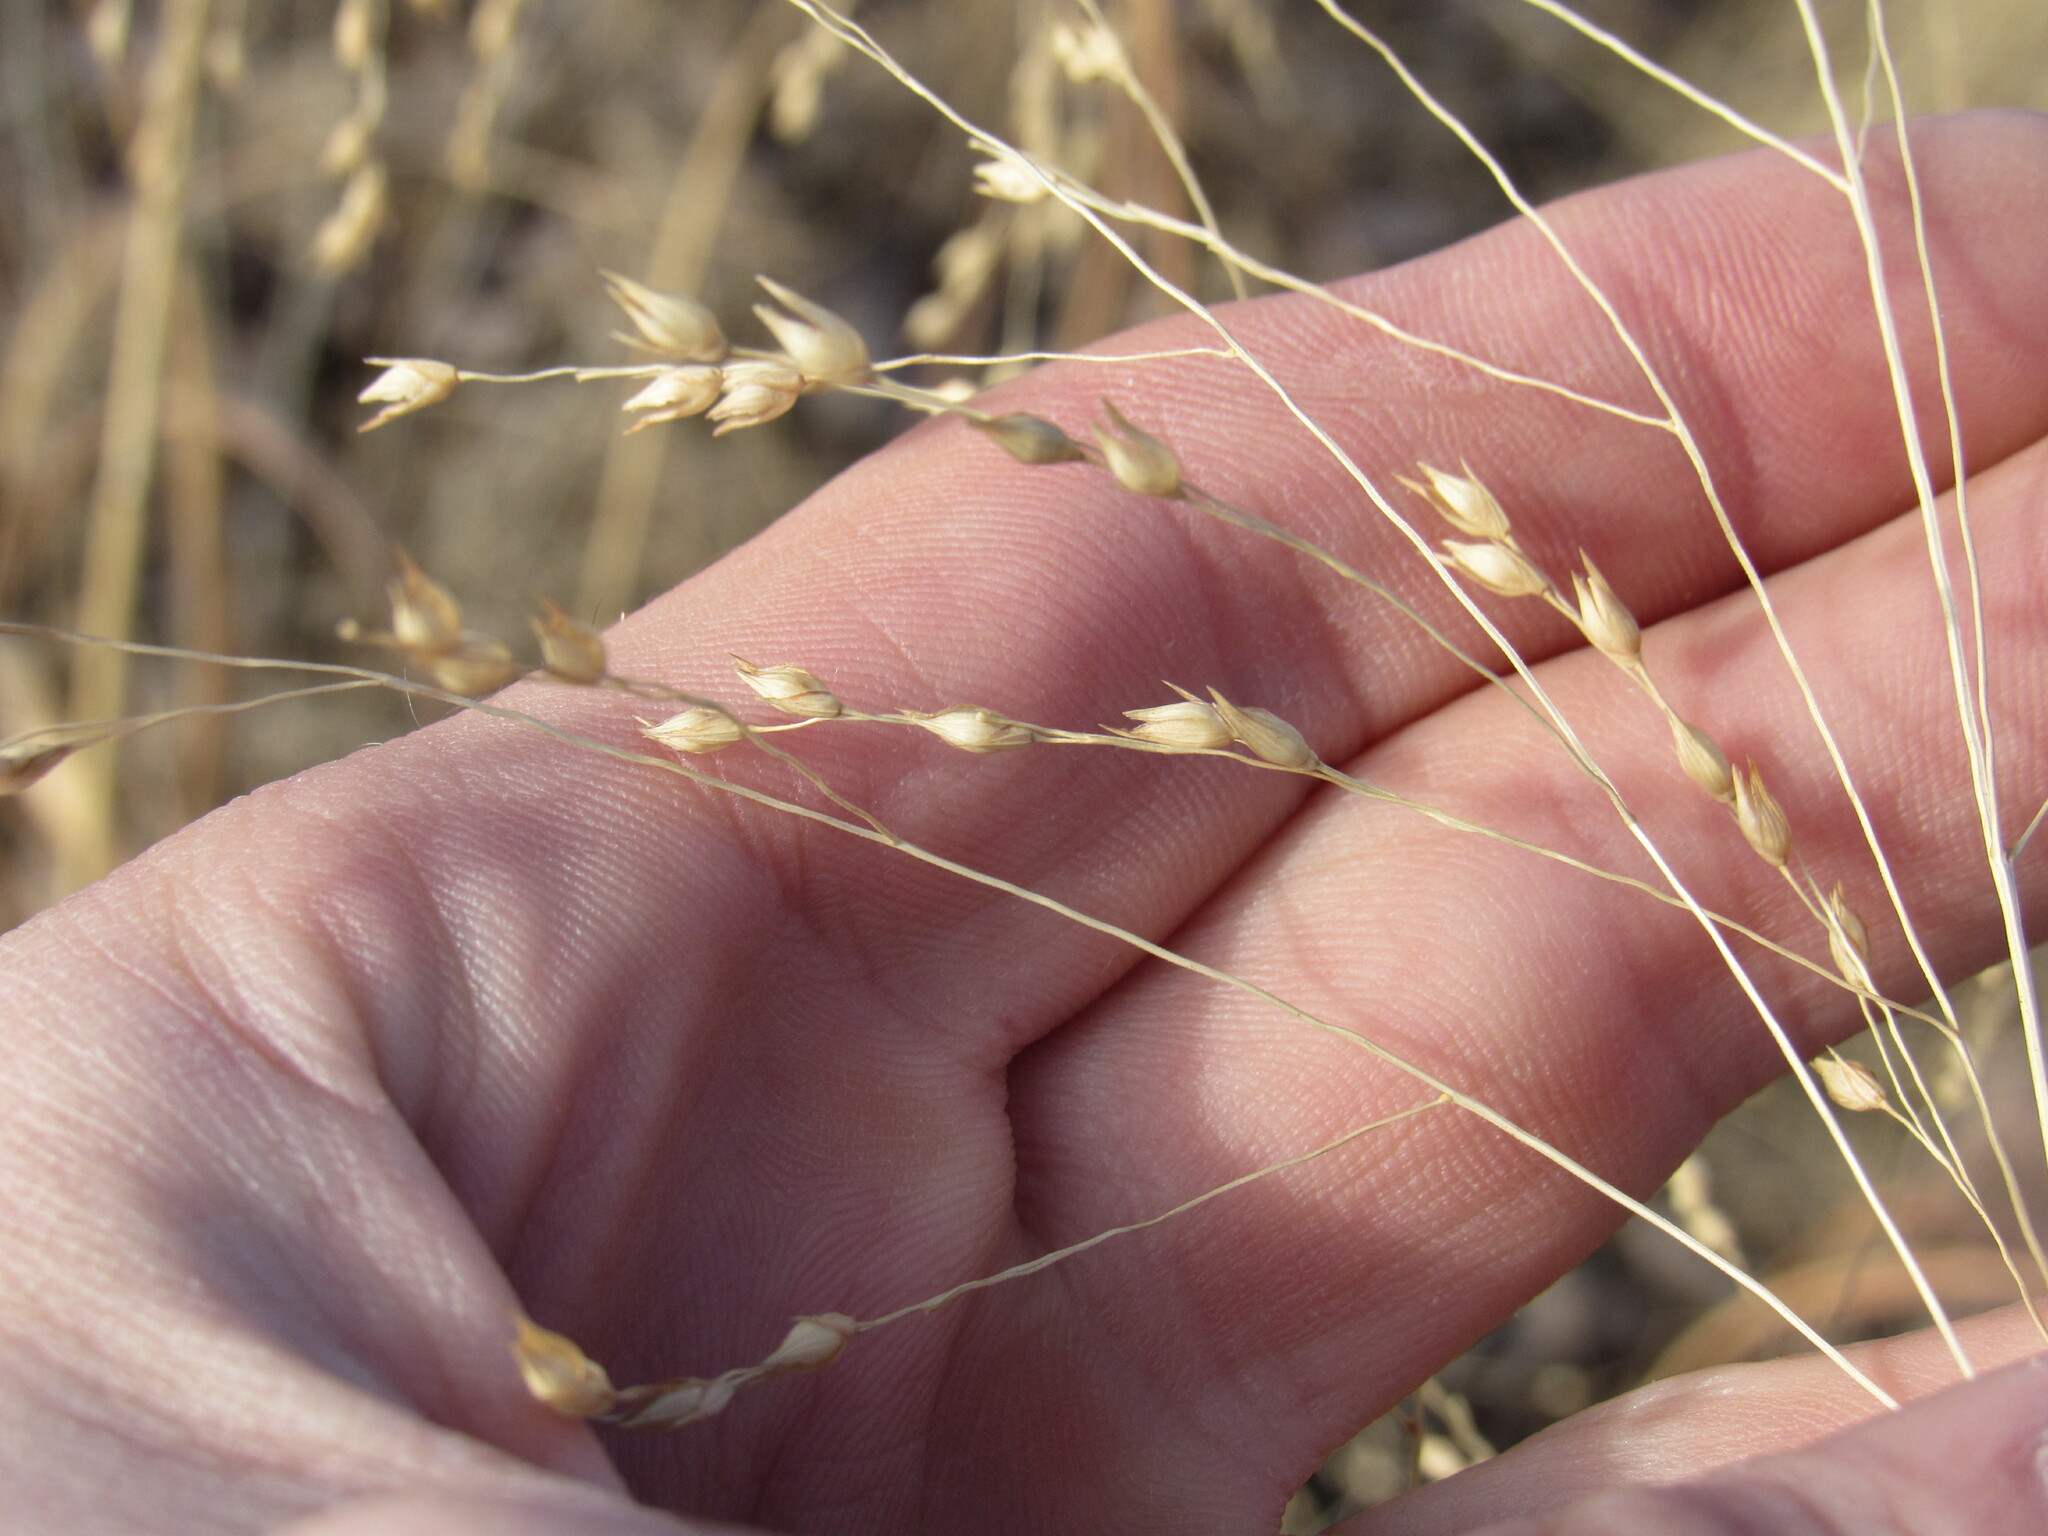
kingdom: Plantae
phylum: Tracheophyta
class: Liliopsida
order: Poales
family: Poaceae
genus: Panicum
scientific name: Panicum virgatum
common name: Switchgrass
